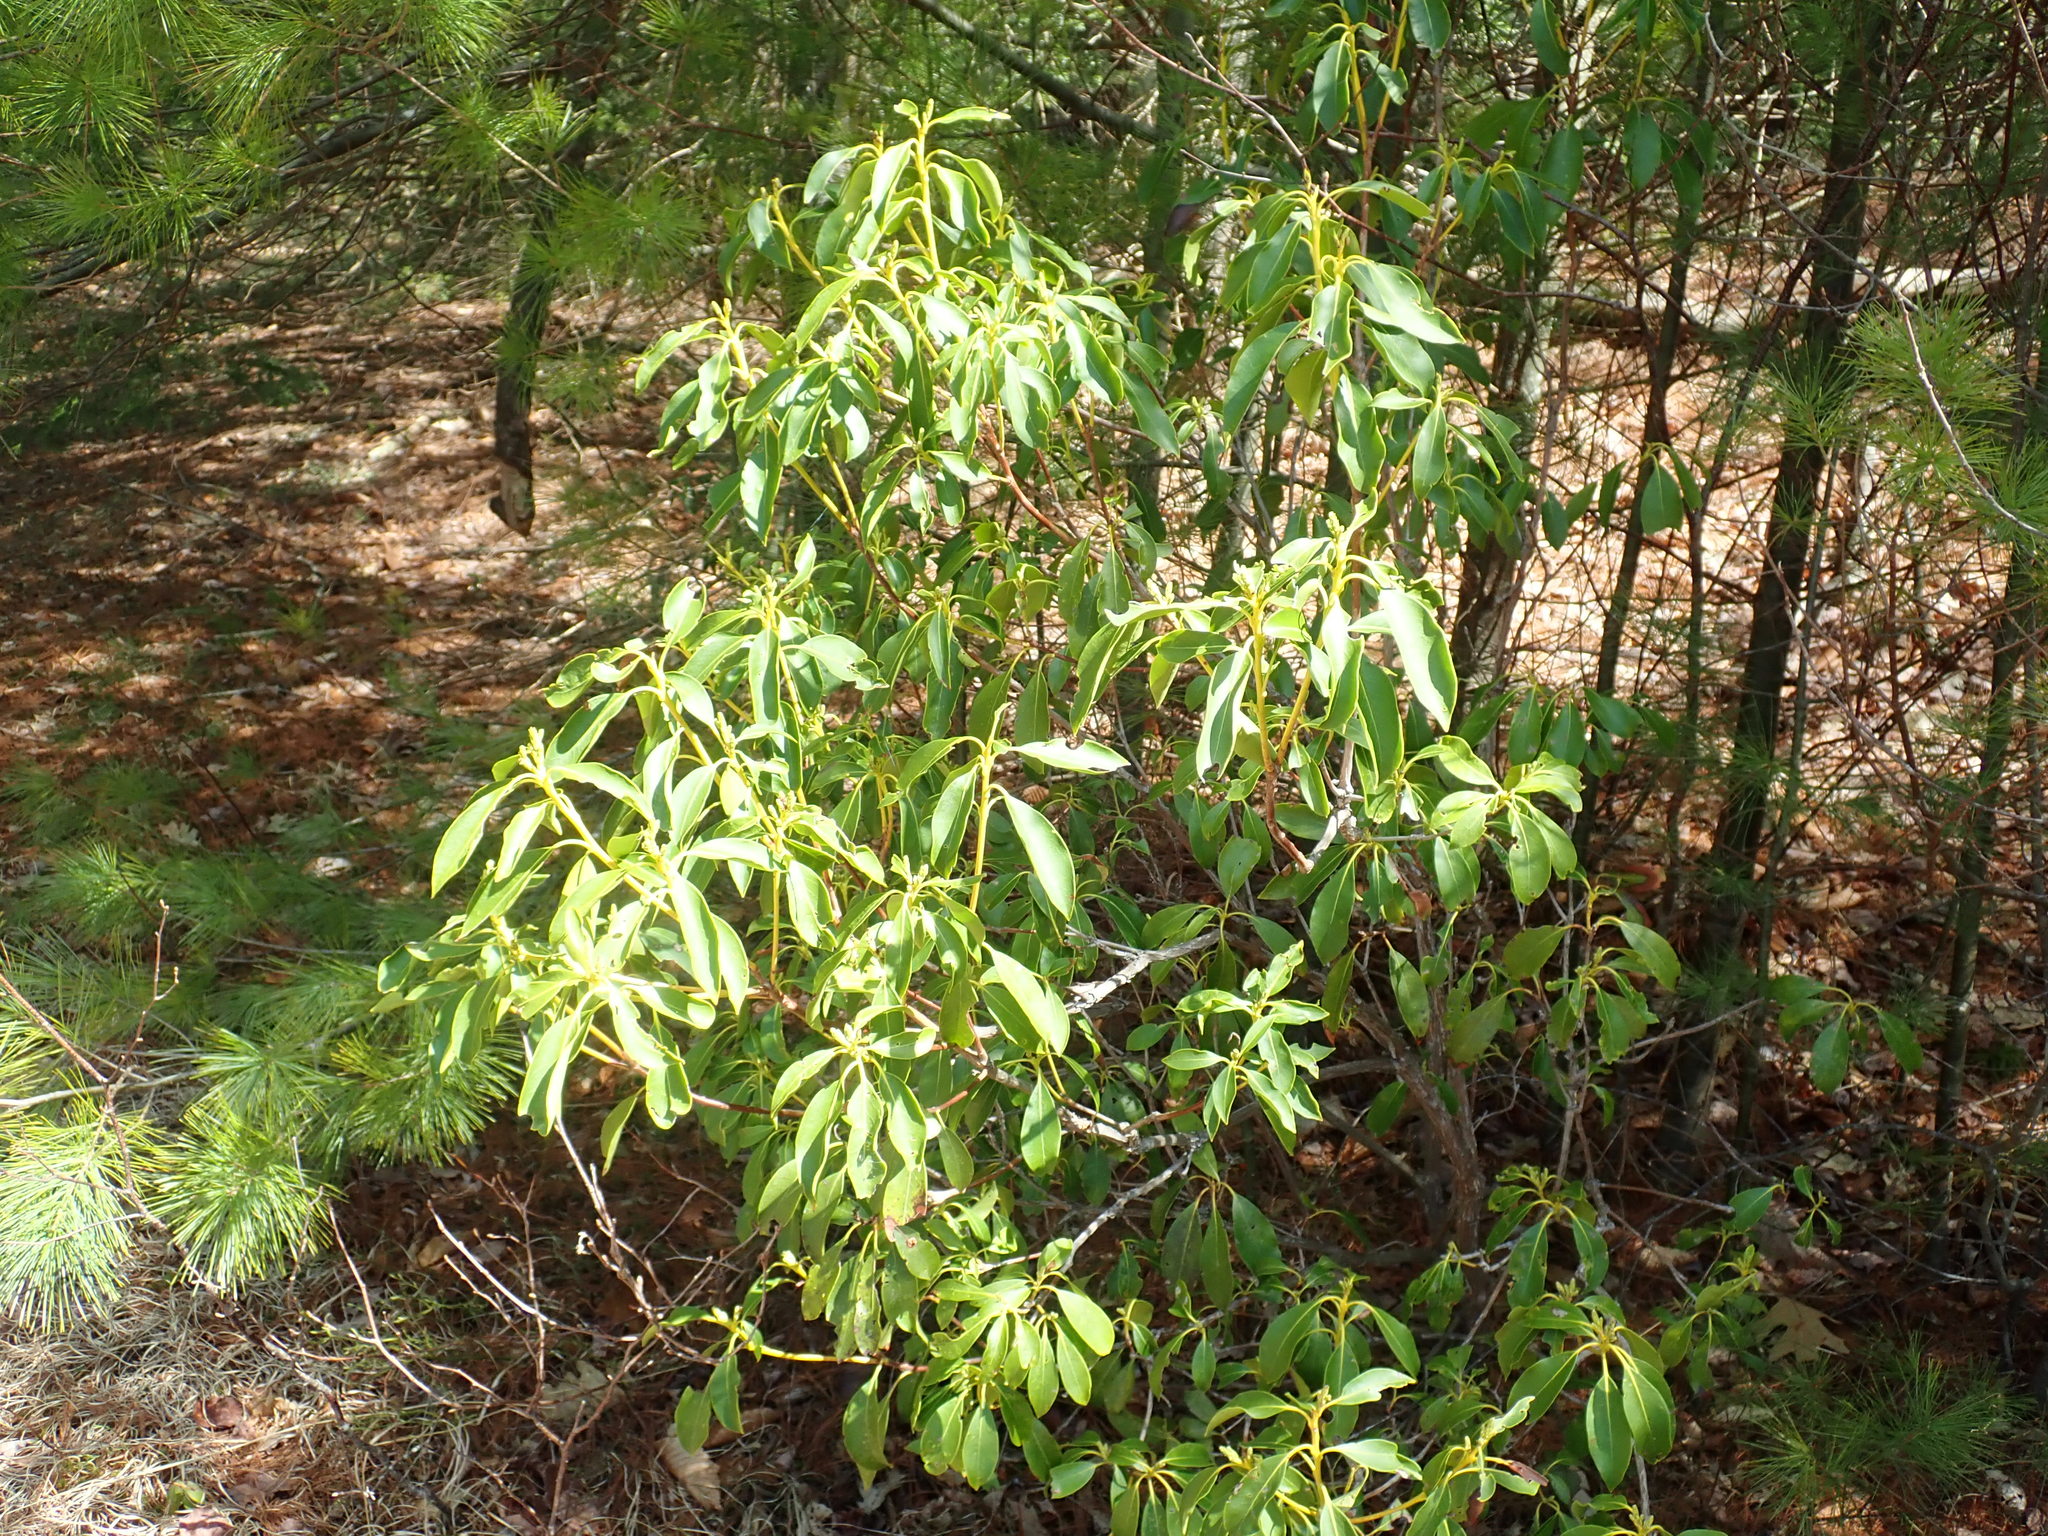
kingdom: Plantae
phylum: Tracheophyta
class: Magnoliopsida
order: Ericales
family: Ericaceae
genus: Kalmia
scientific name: Kalmia latifolia
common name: Mountain-laurel
